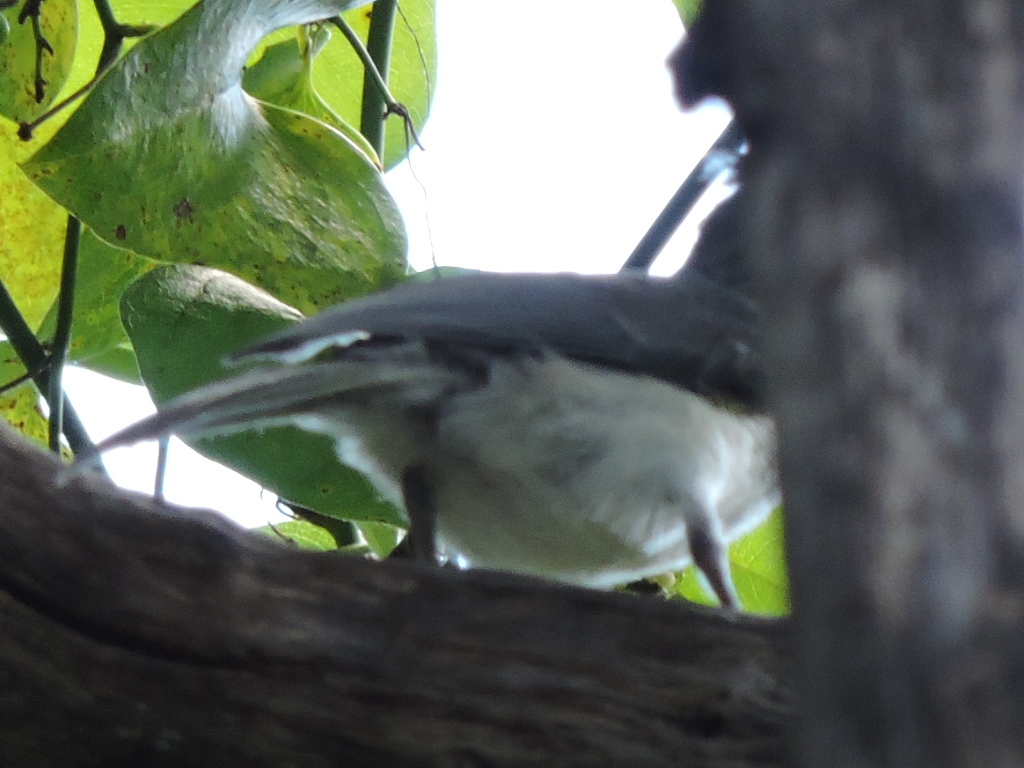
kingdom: Animalia
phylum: Chordata
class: Aves
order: Passeriformes
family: Paridae
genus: Baeolophus
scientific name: Baeolophus bicolor
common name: Tufted titmouse
